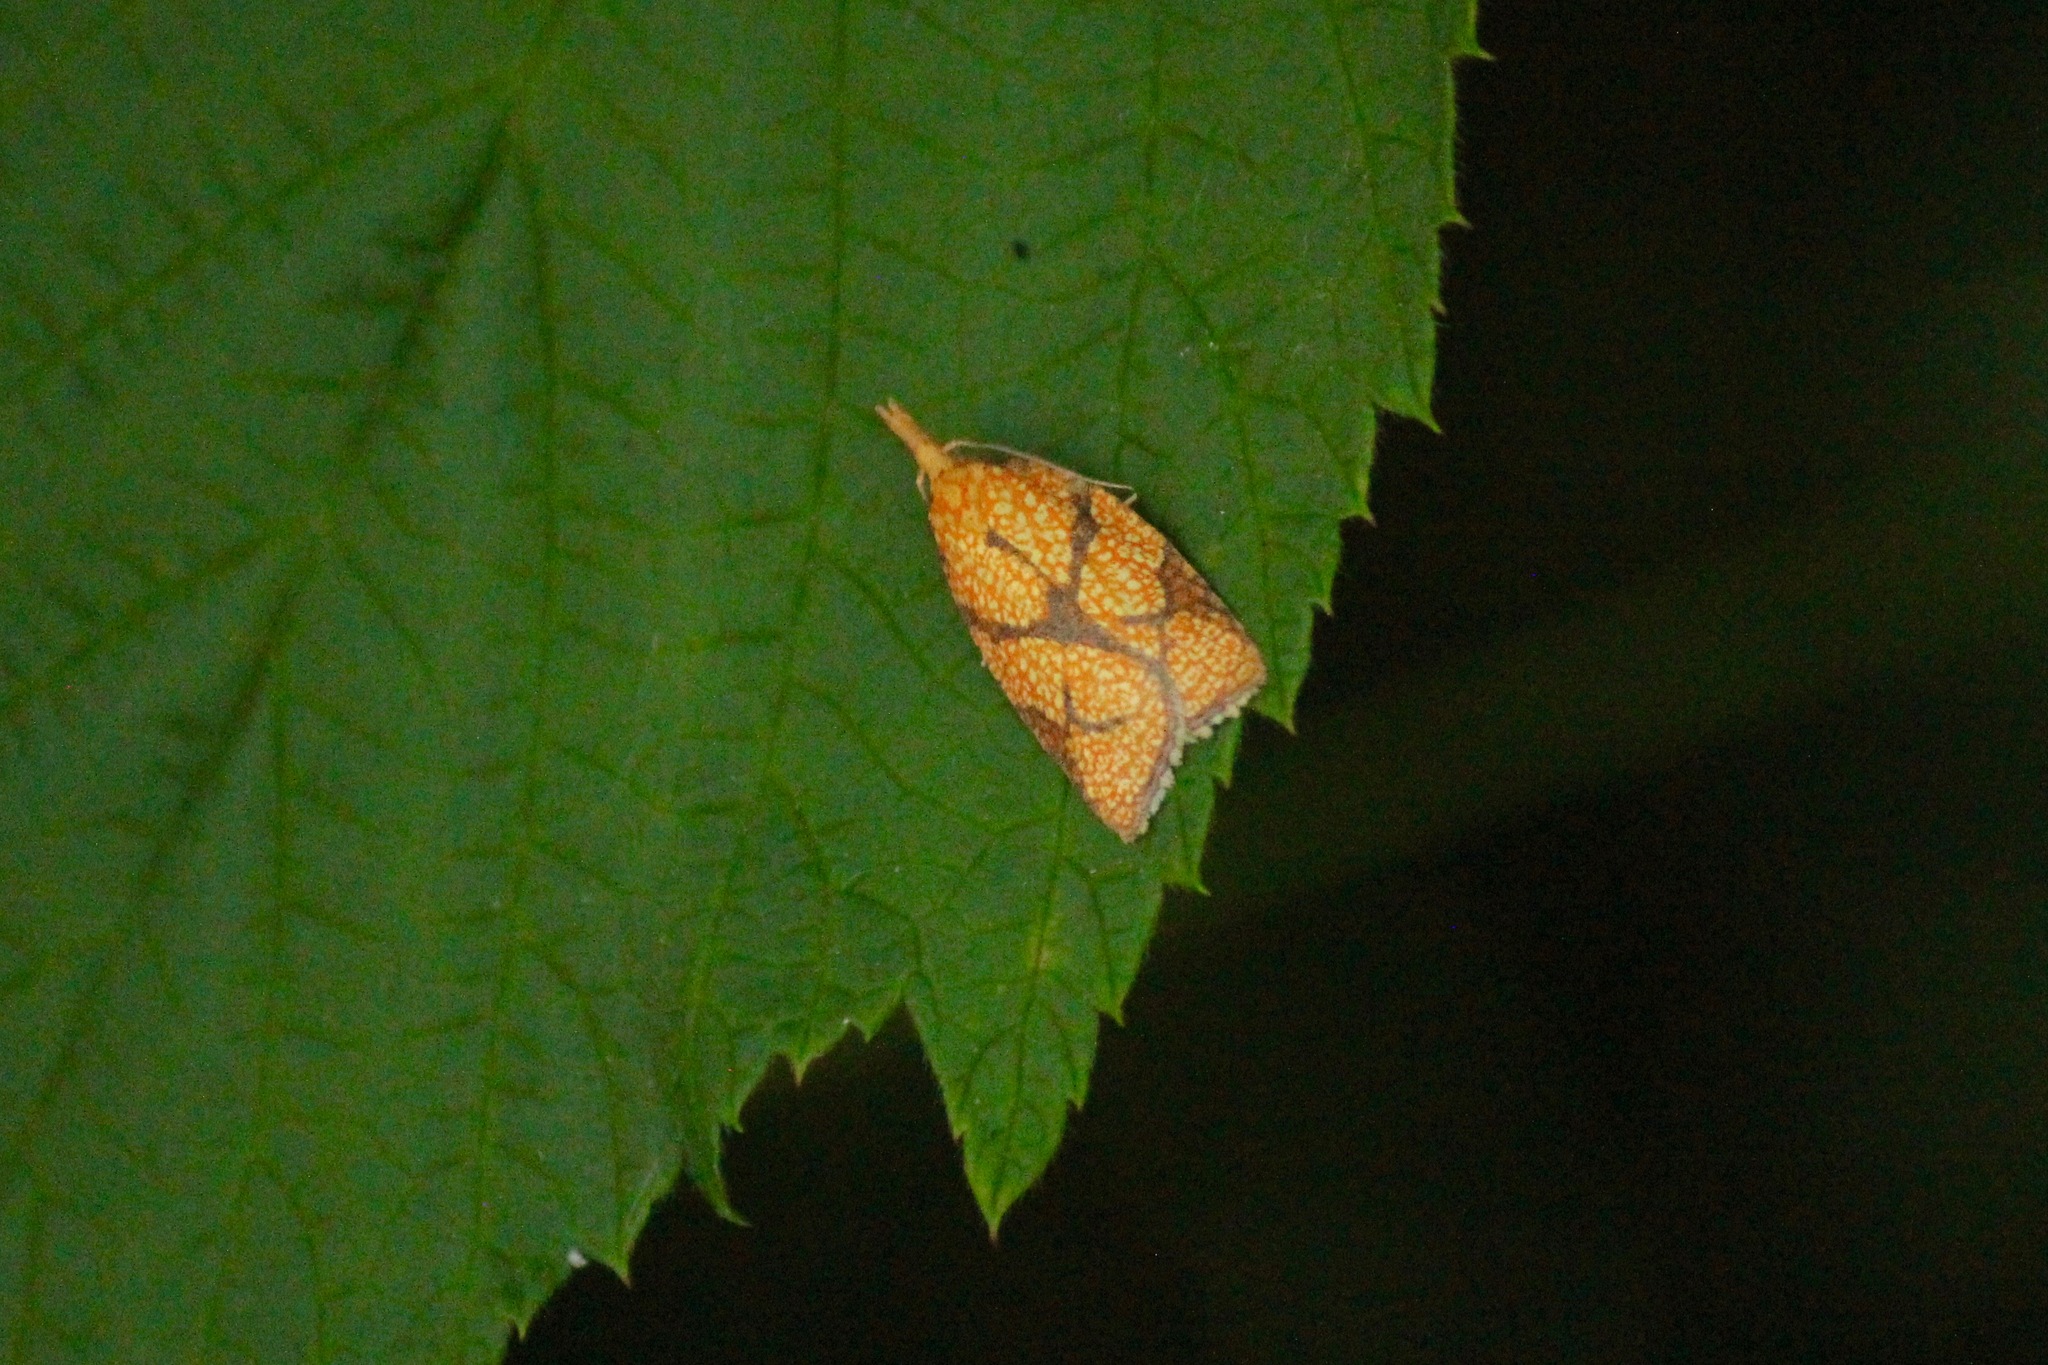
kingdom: Animalia
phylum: Arthropoda
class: Insecta
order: Lepidoptera
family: Tortricidae
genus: Cenopis
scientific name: Cenopis reticulatana
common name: Reticulated fruitworm moth
